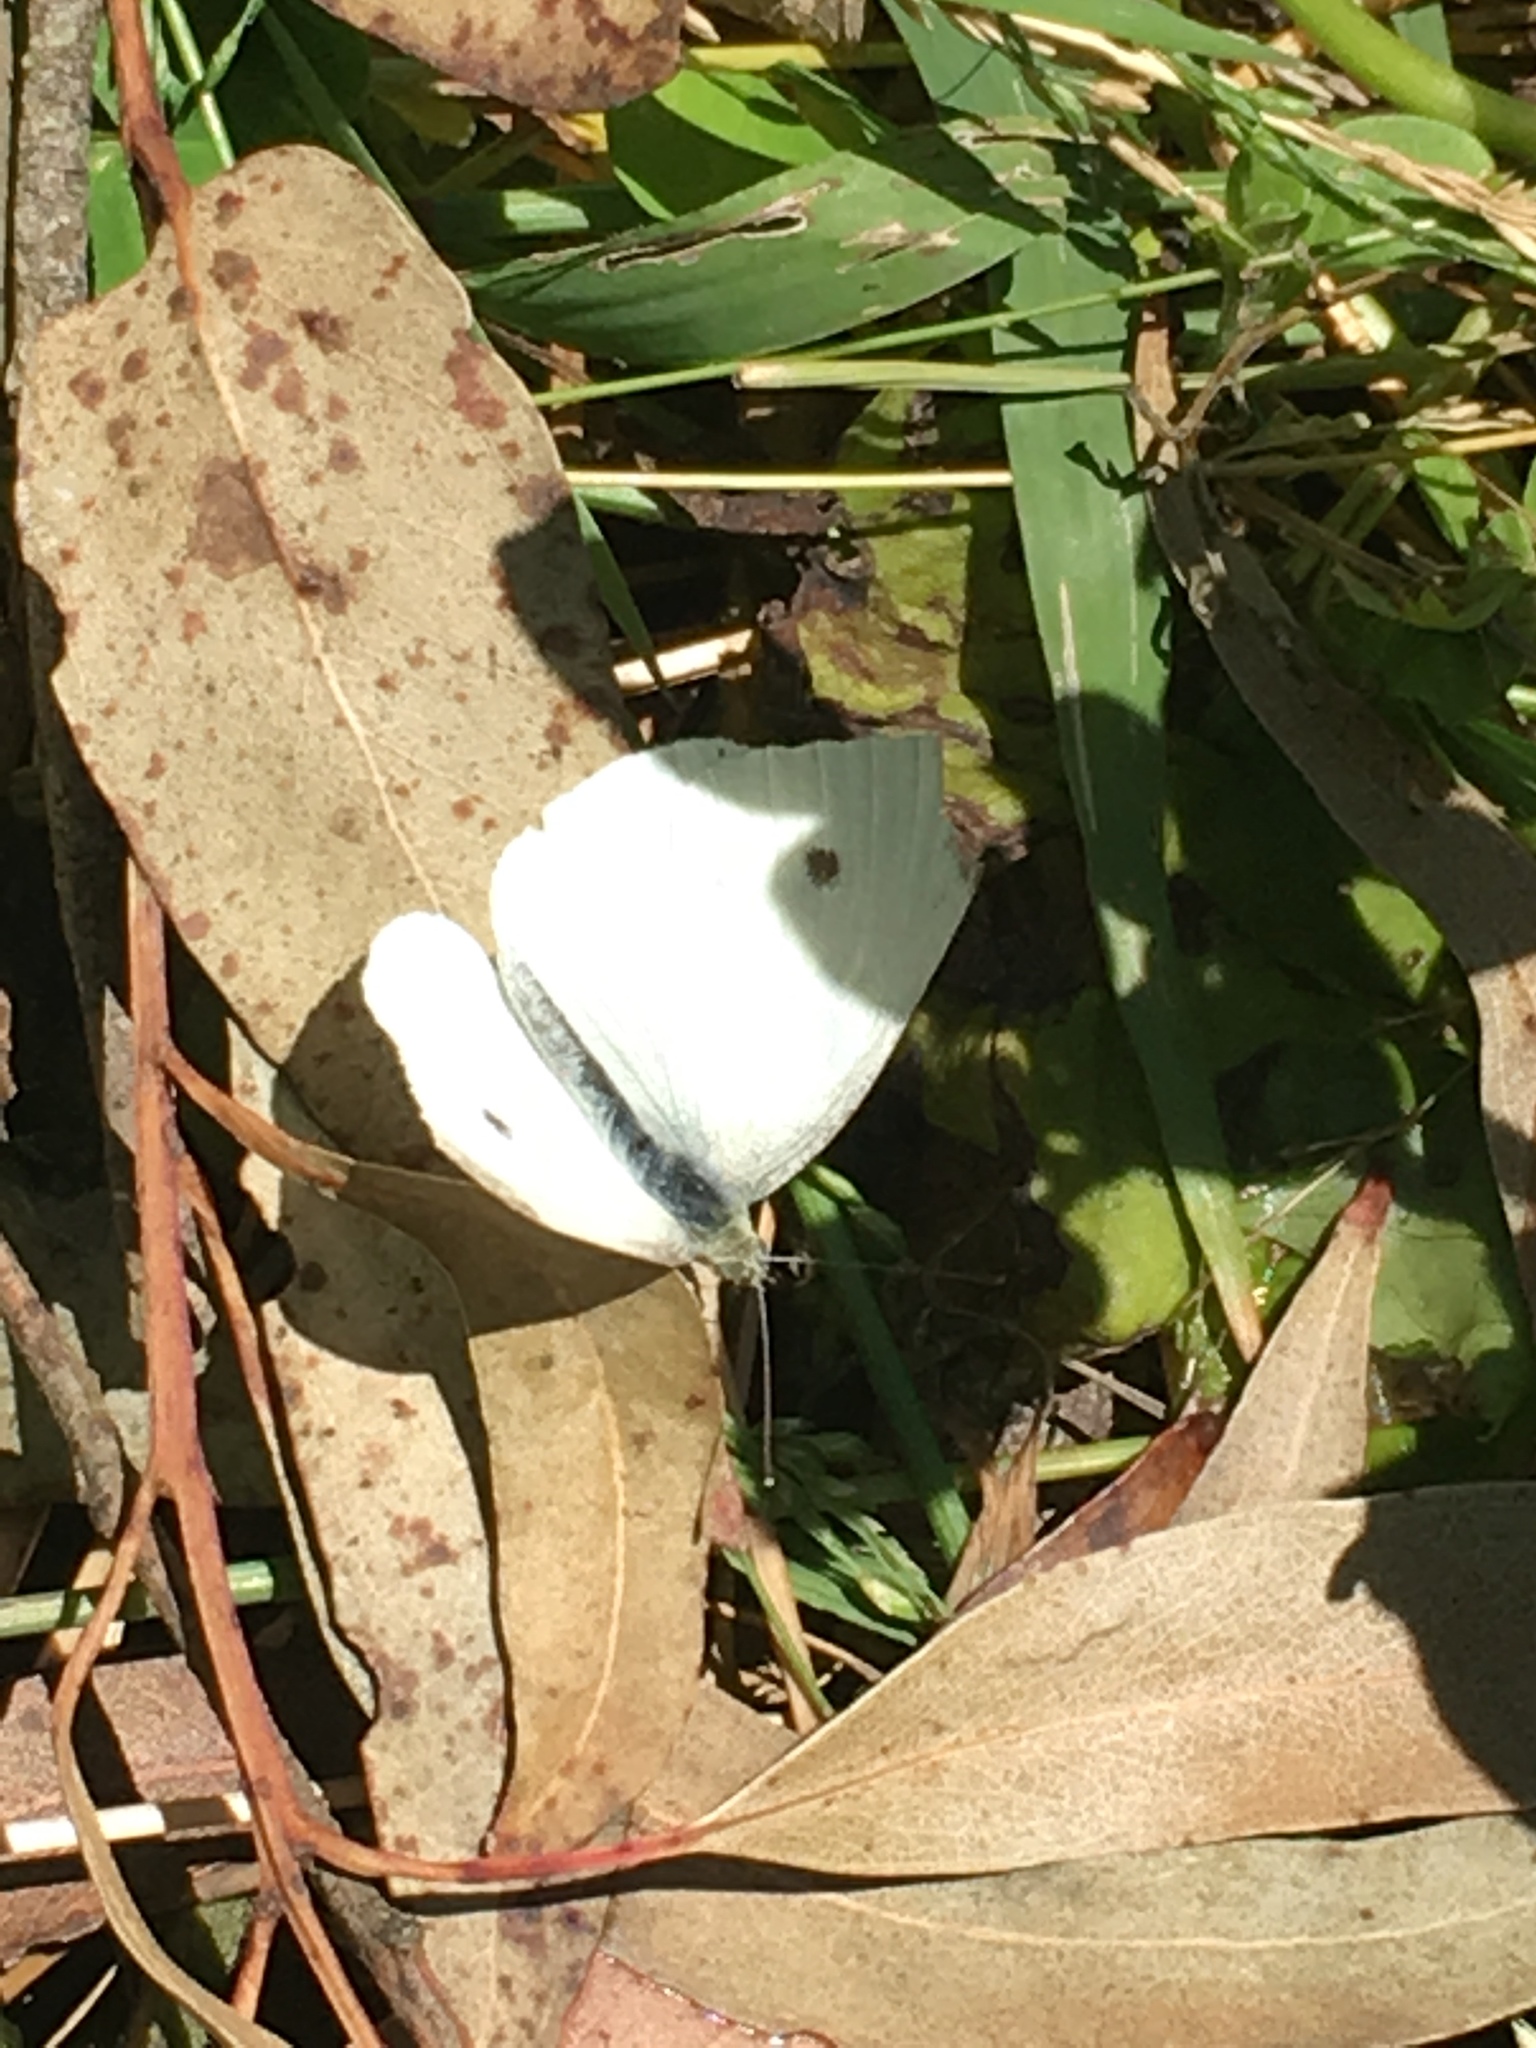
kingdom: Animalia
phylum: Arthropoda
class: Insecta
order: Lepidoptera
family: Pieridae
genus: Pieris
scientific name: Pieris rapae
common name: Small white
